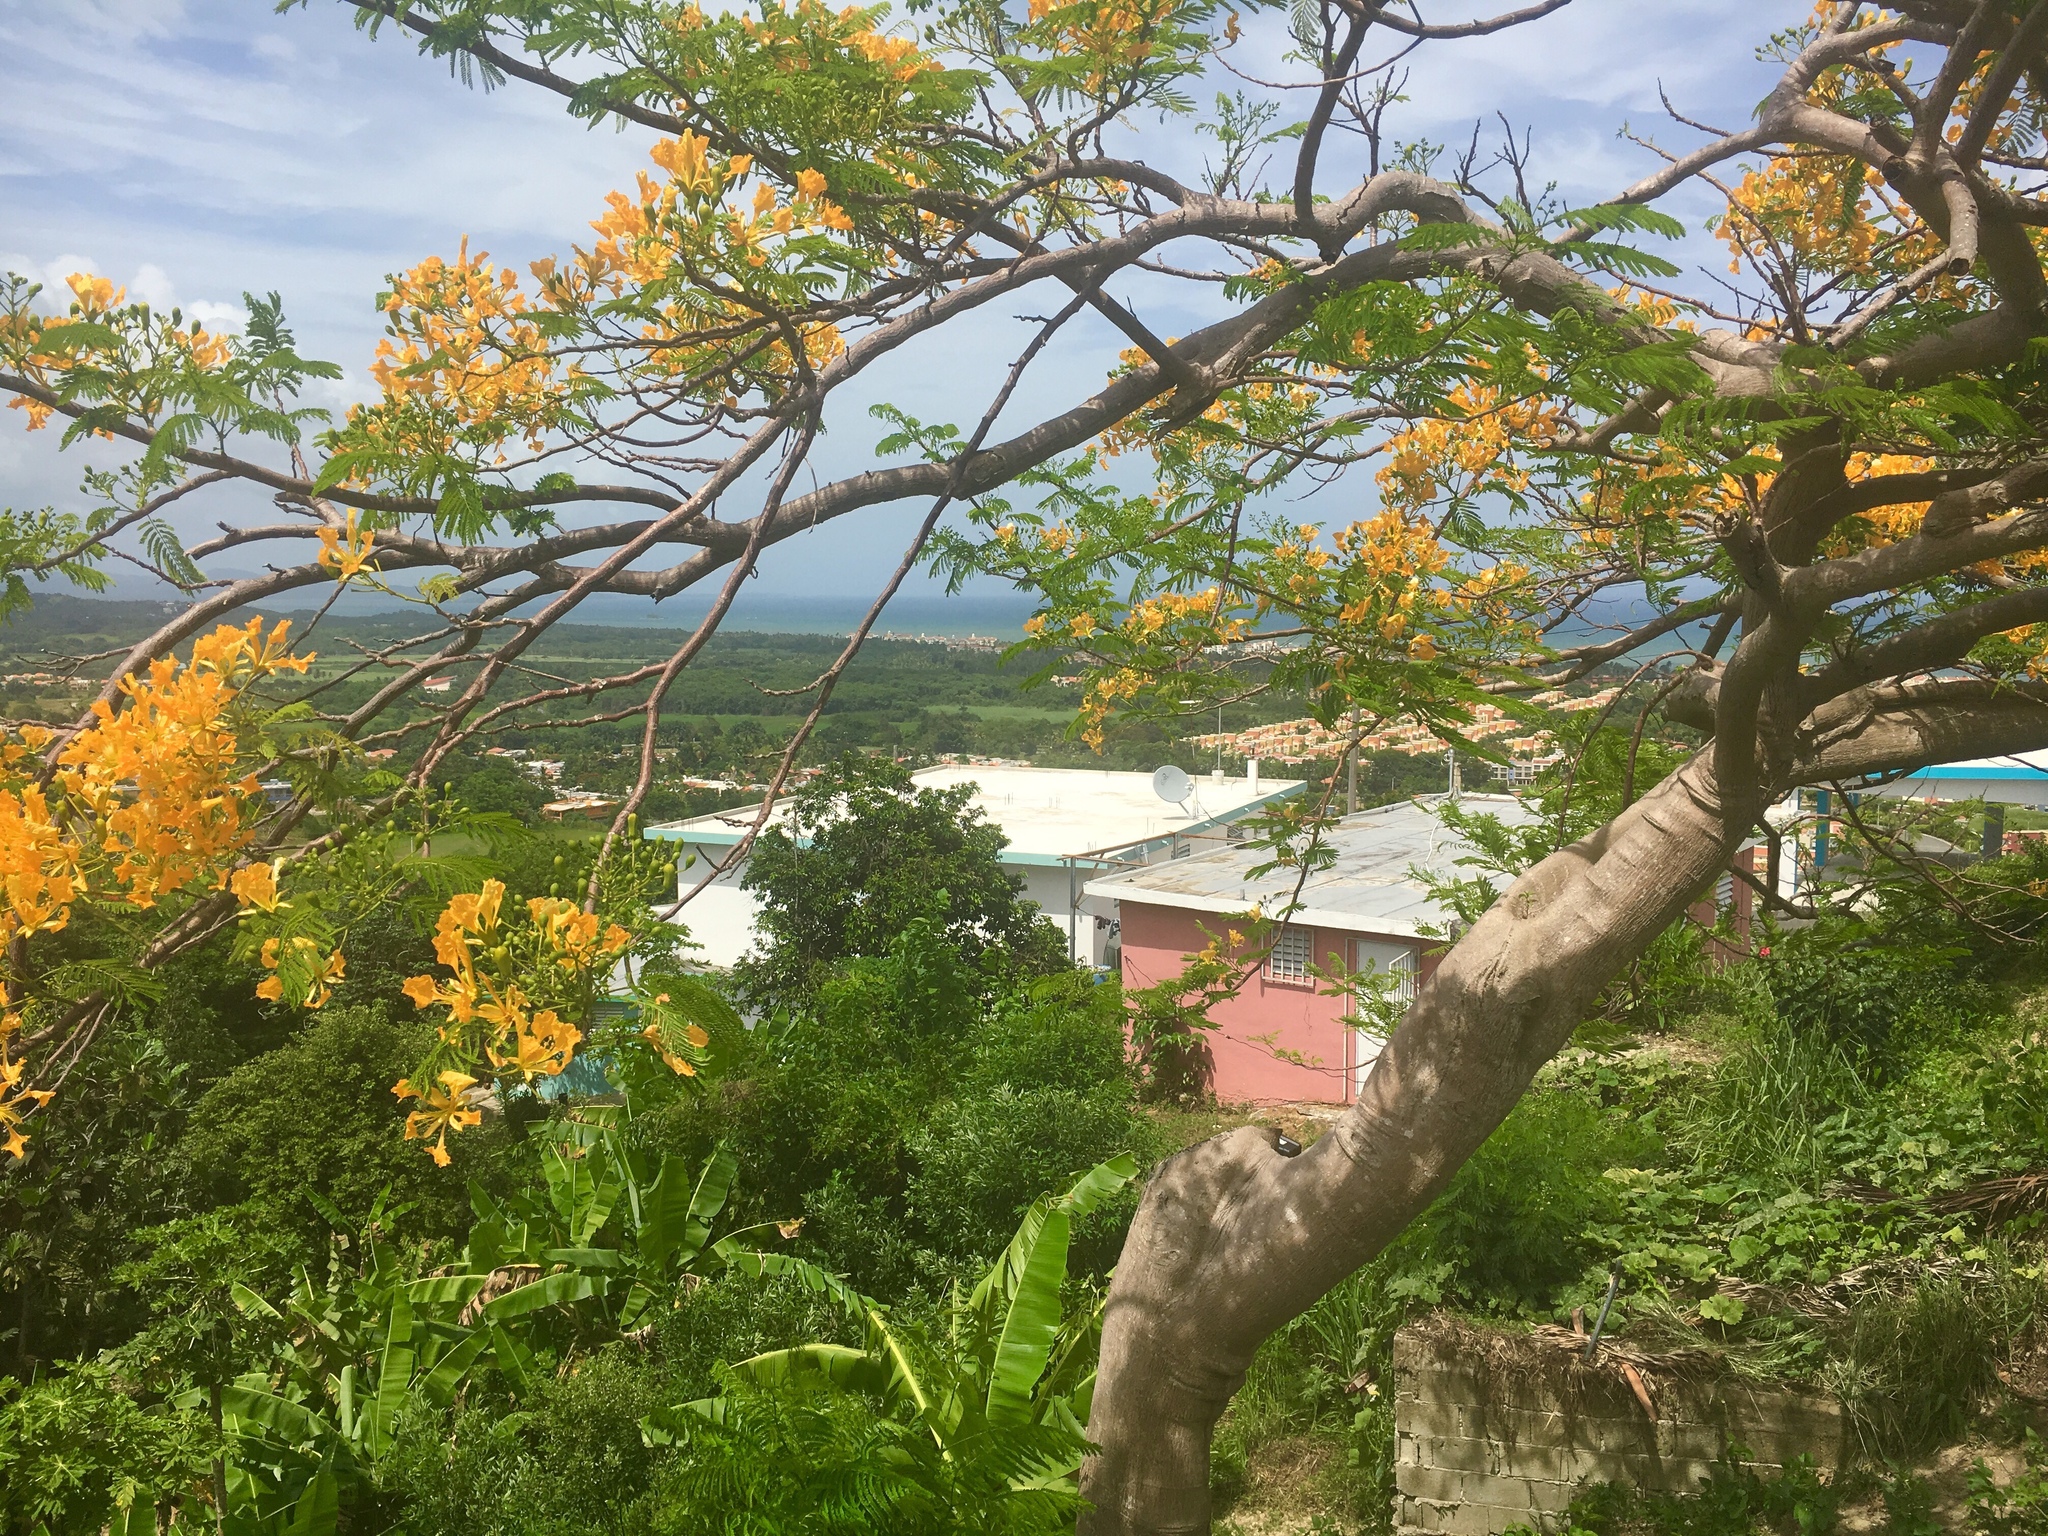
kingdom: Plantae
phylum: Tracheophyta
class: Magnoliopsida
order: Fabales
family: Fabaceae
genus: Delonix
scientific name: Delonix regia
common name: Royal poinciana
